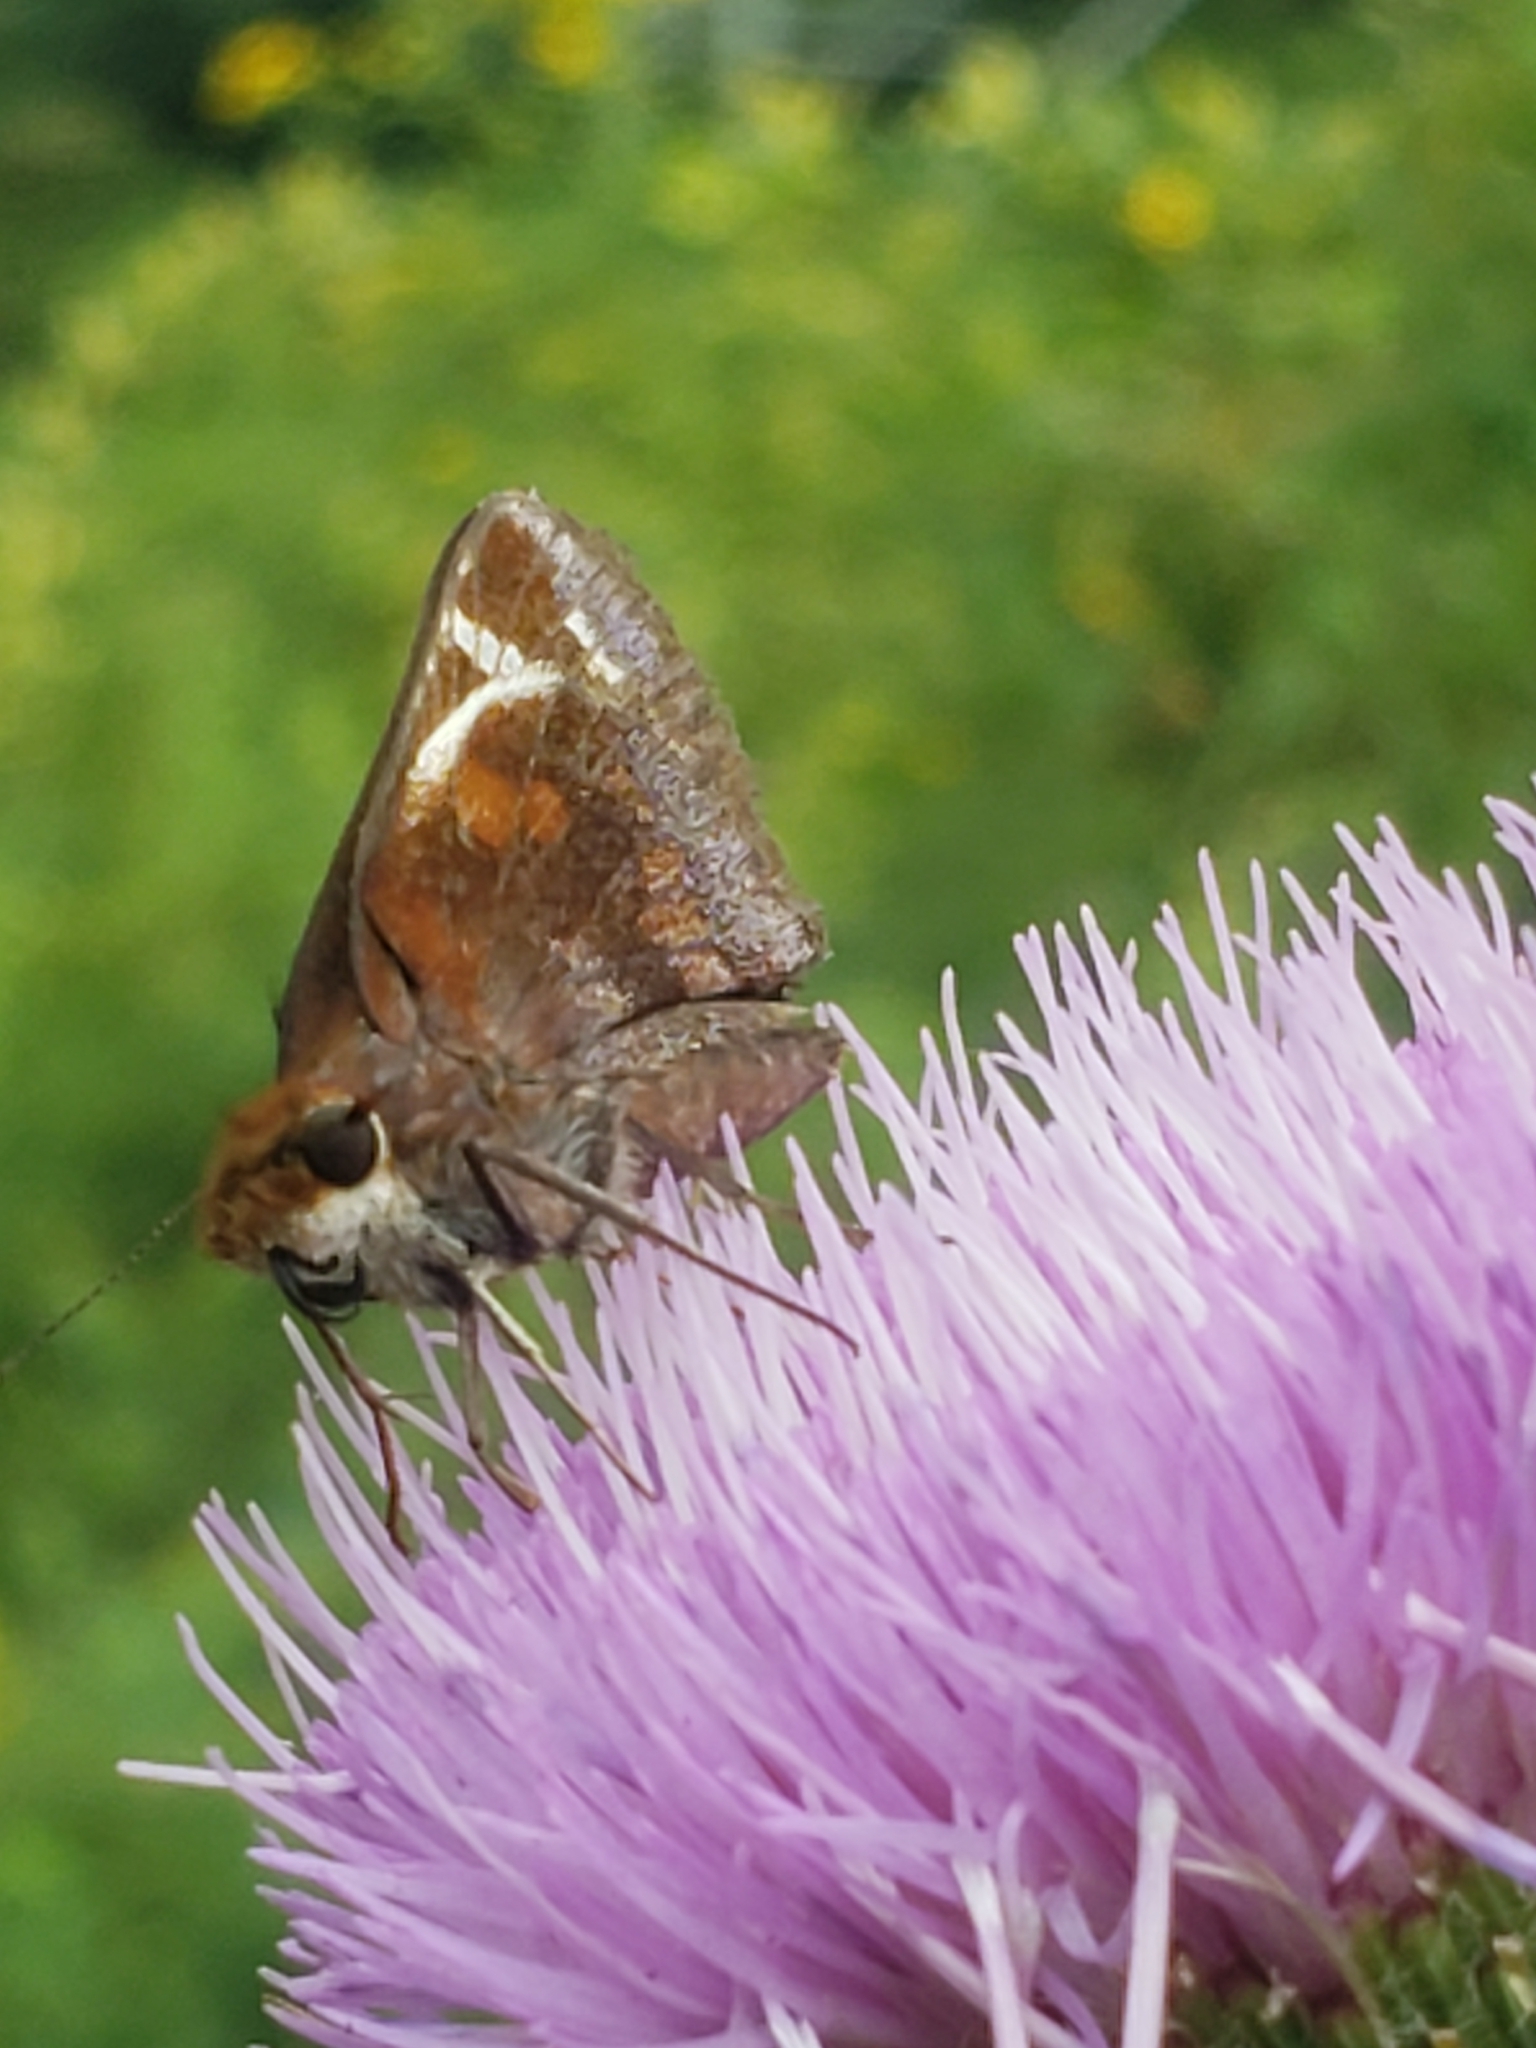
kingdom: Animalia
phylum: Arthropoda
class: Insecta
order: Lepidoptera
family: Hesperiidae
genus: Lon
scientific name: Lon zabulon
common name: Zabulon skipper
